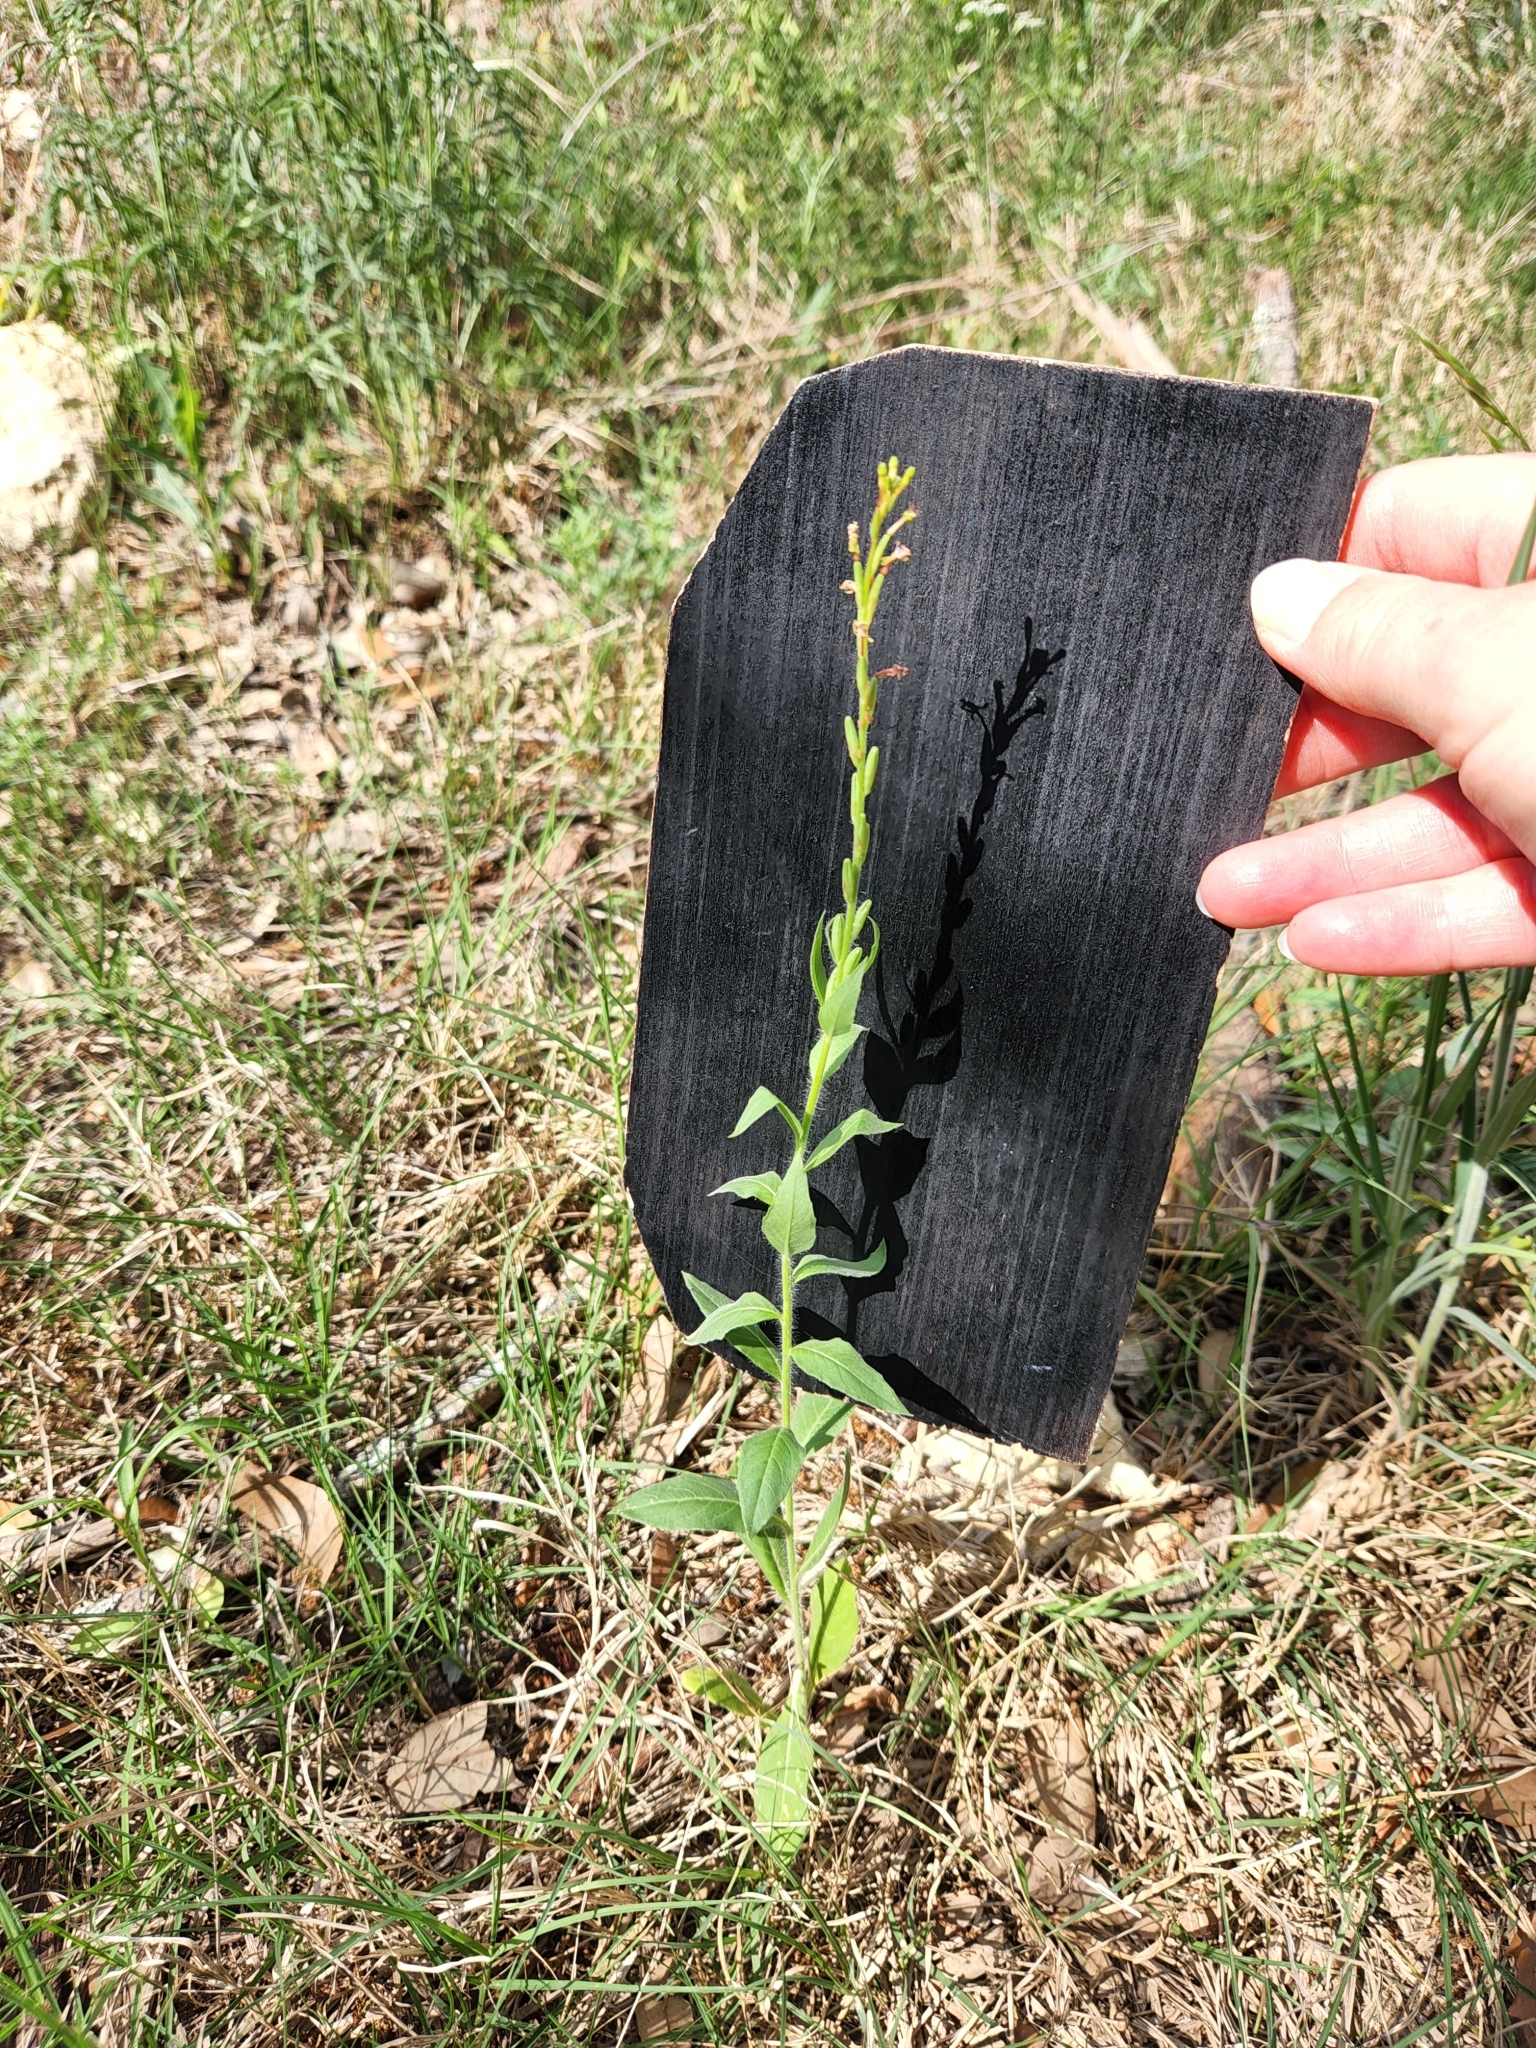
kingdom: Plantae
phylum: Tracheophyta
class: Magnoliopsida
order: Myrtales
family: Onagraceae
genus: Oenothera
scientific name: Oenothera curtiflora
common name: Velvetweed
